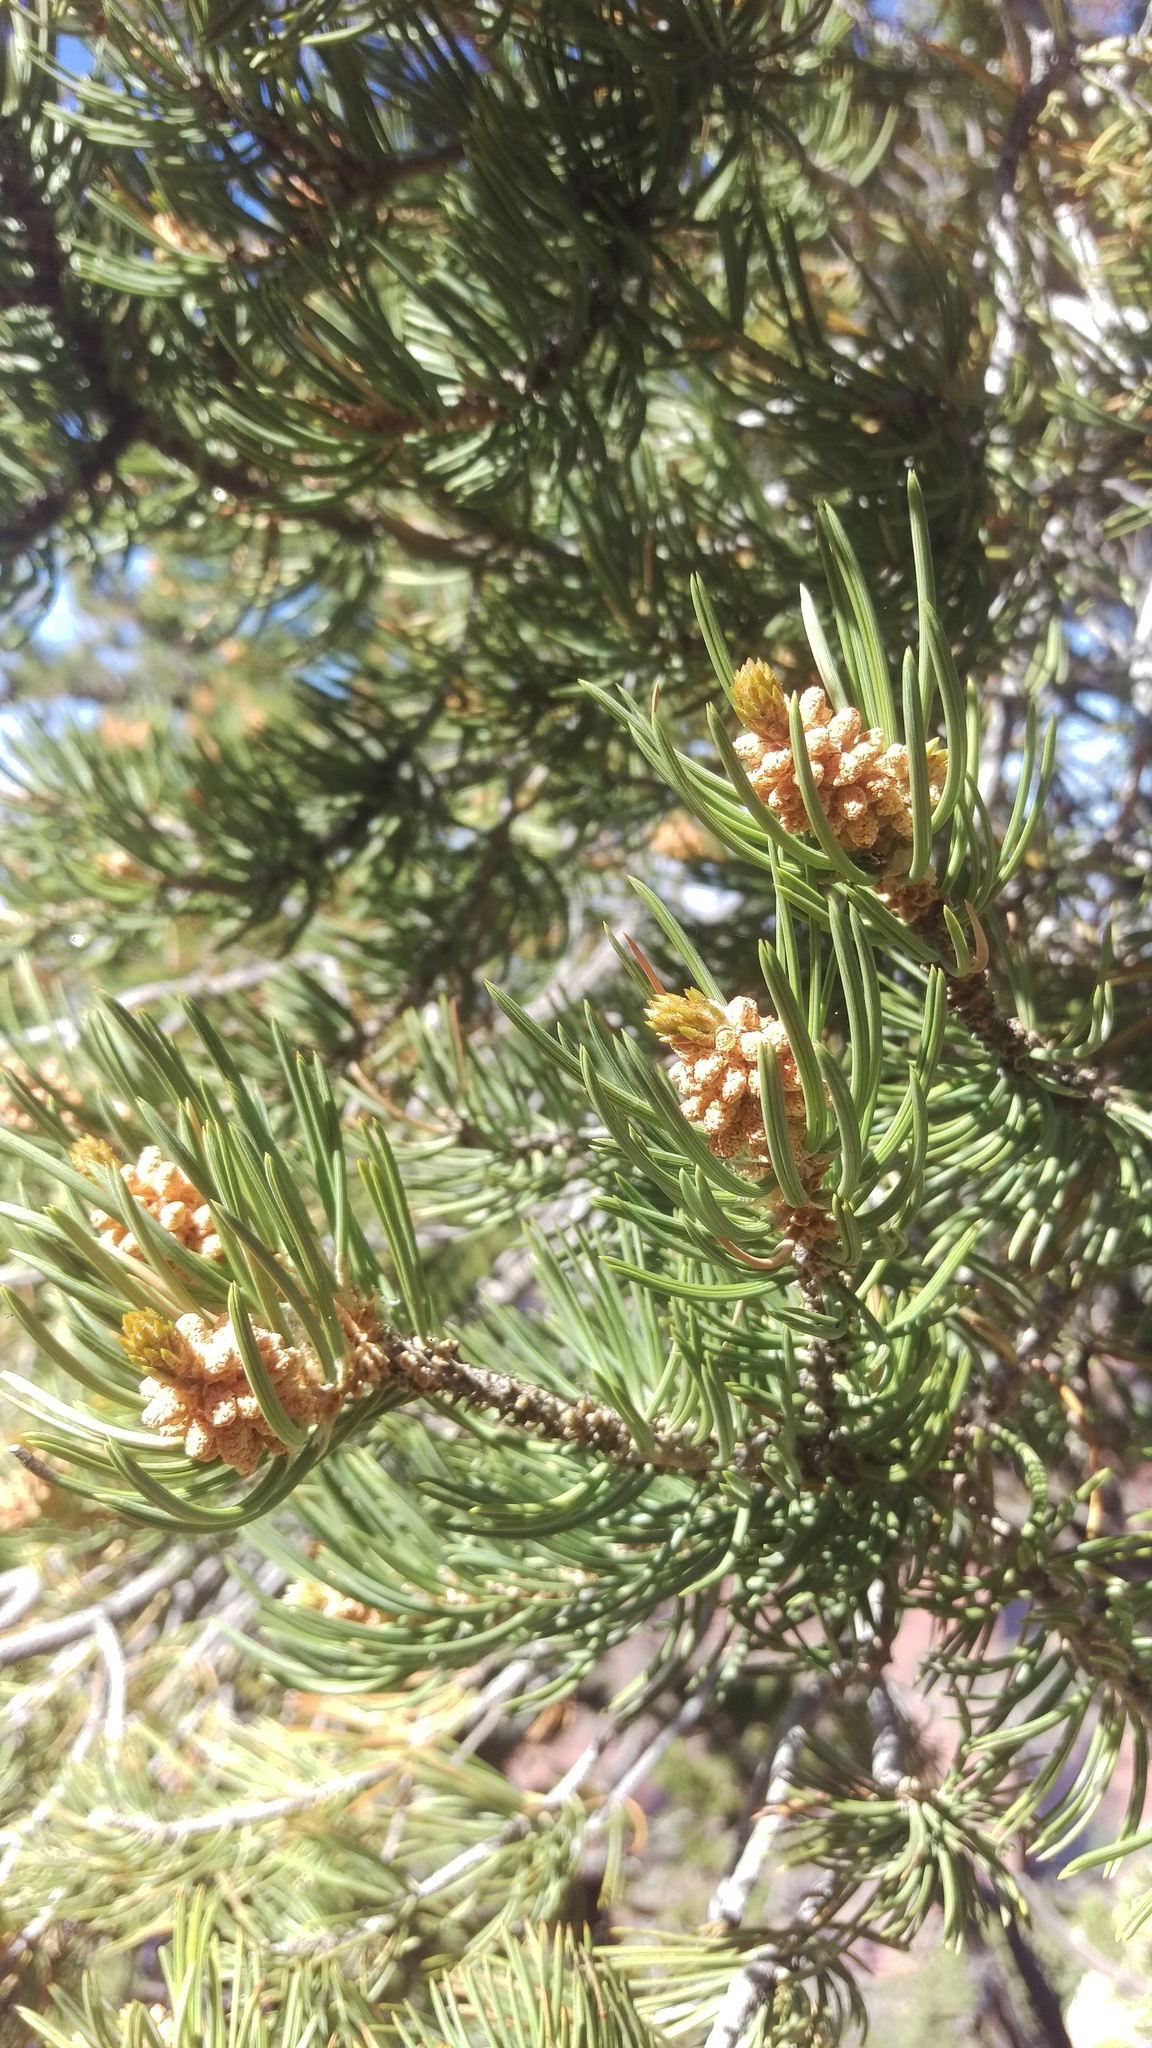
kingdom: Plantae
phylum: Tracheophyta
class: Pinopsida
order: Pinales
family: Pinaceae
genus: Pinus
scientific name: Pinus edulis
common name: Colorado pinyon
